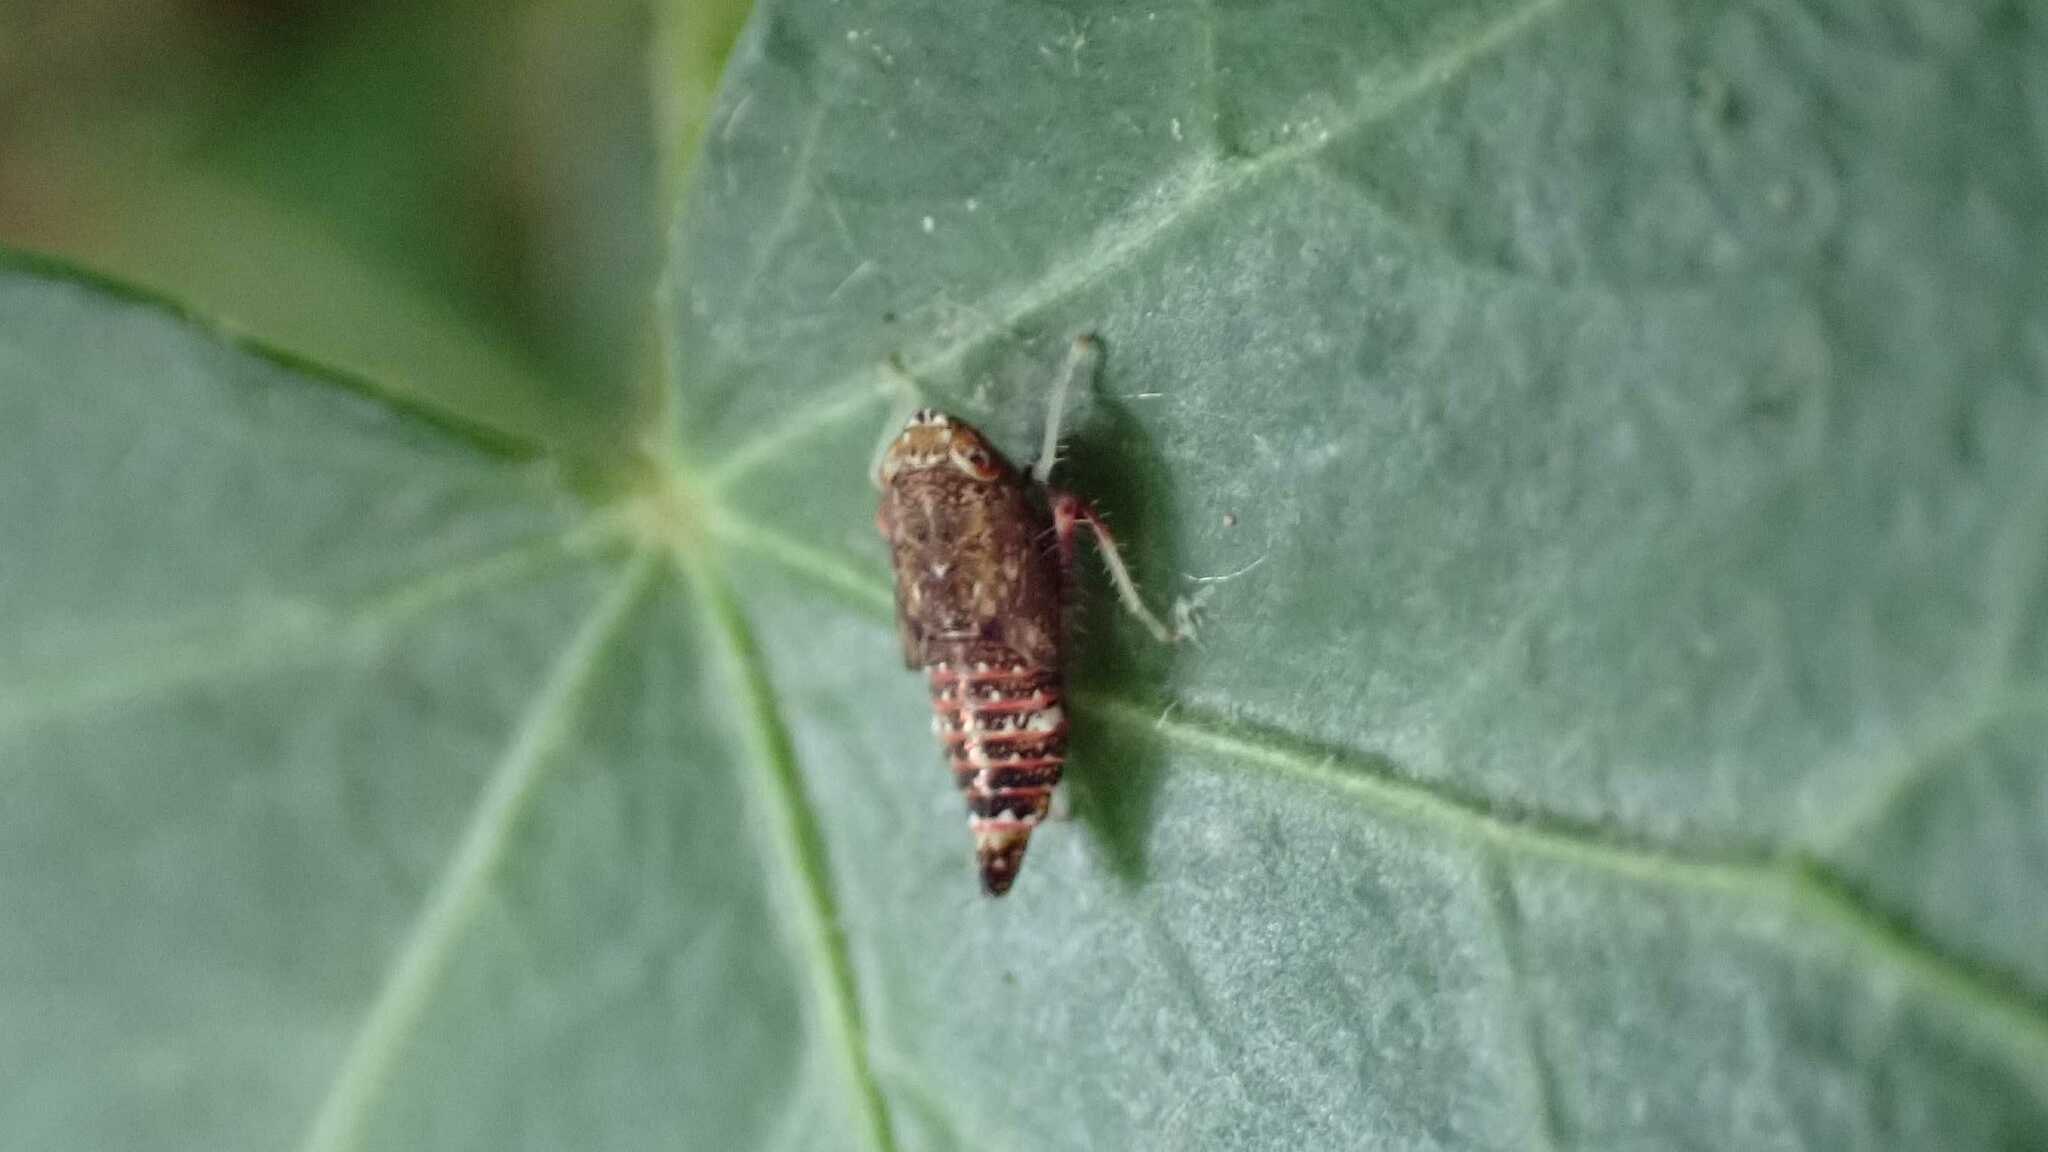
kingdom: Animalia
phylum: Arthropoda
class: Insecta
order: Hemiptera
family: Cicadellidae
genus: Orientus
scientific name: Orientus ishidae
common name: Japanese leafhopper
